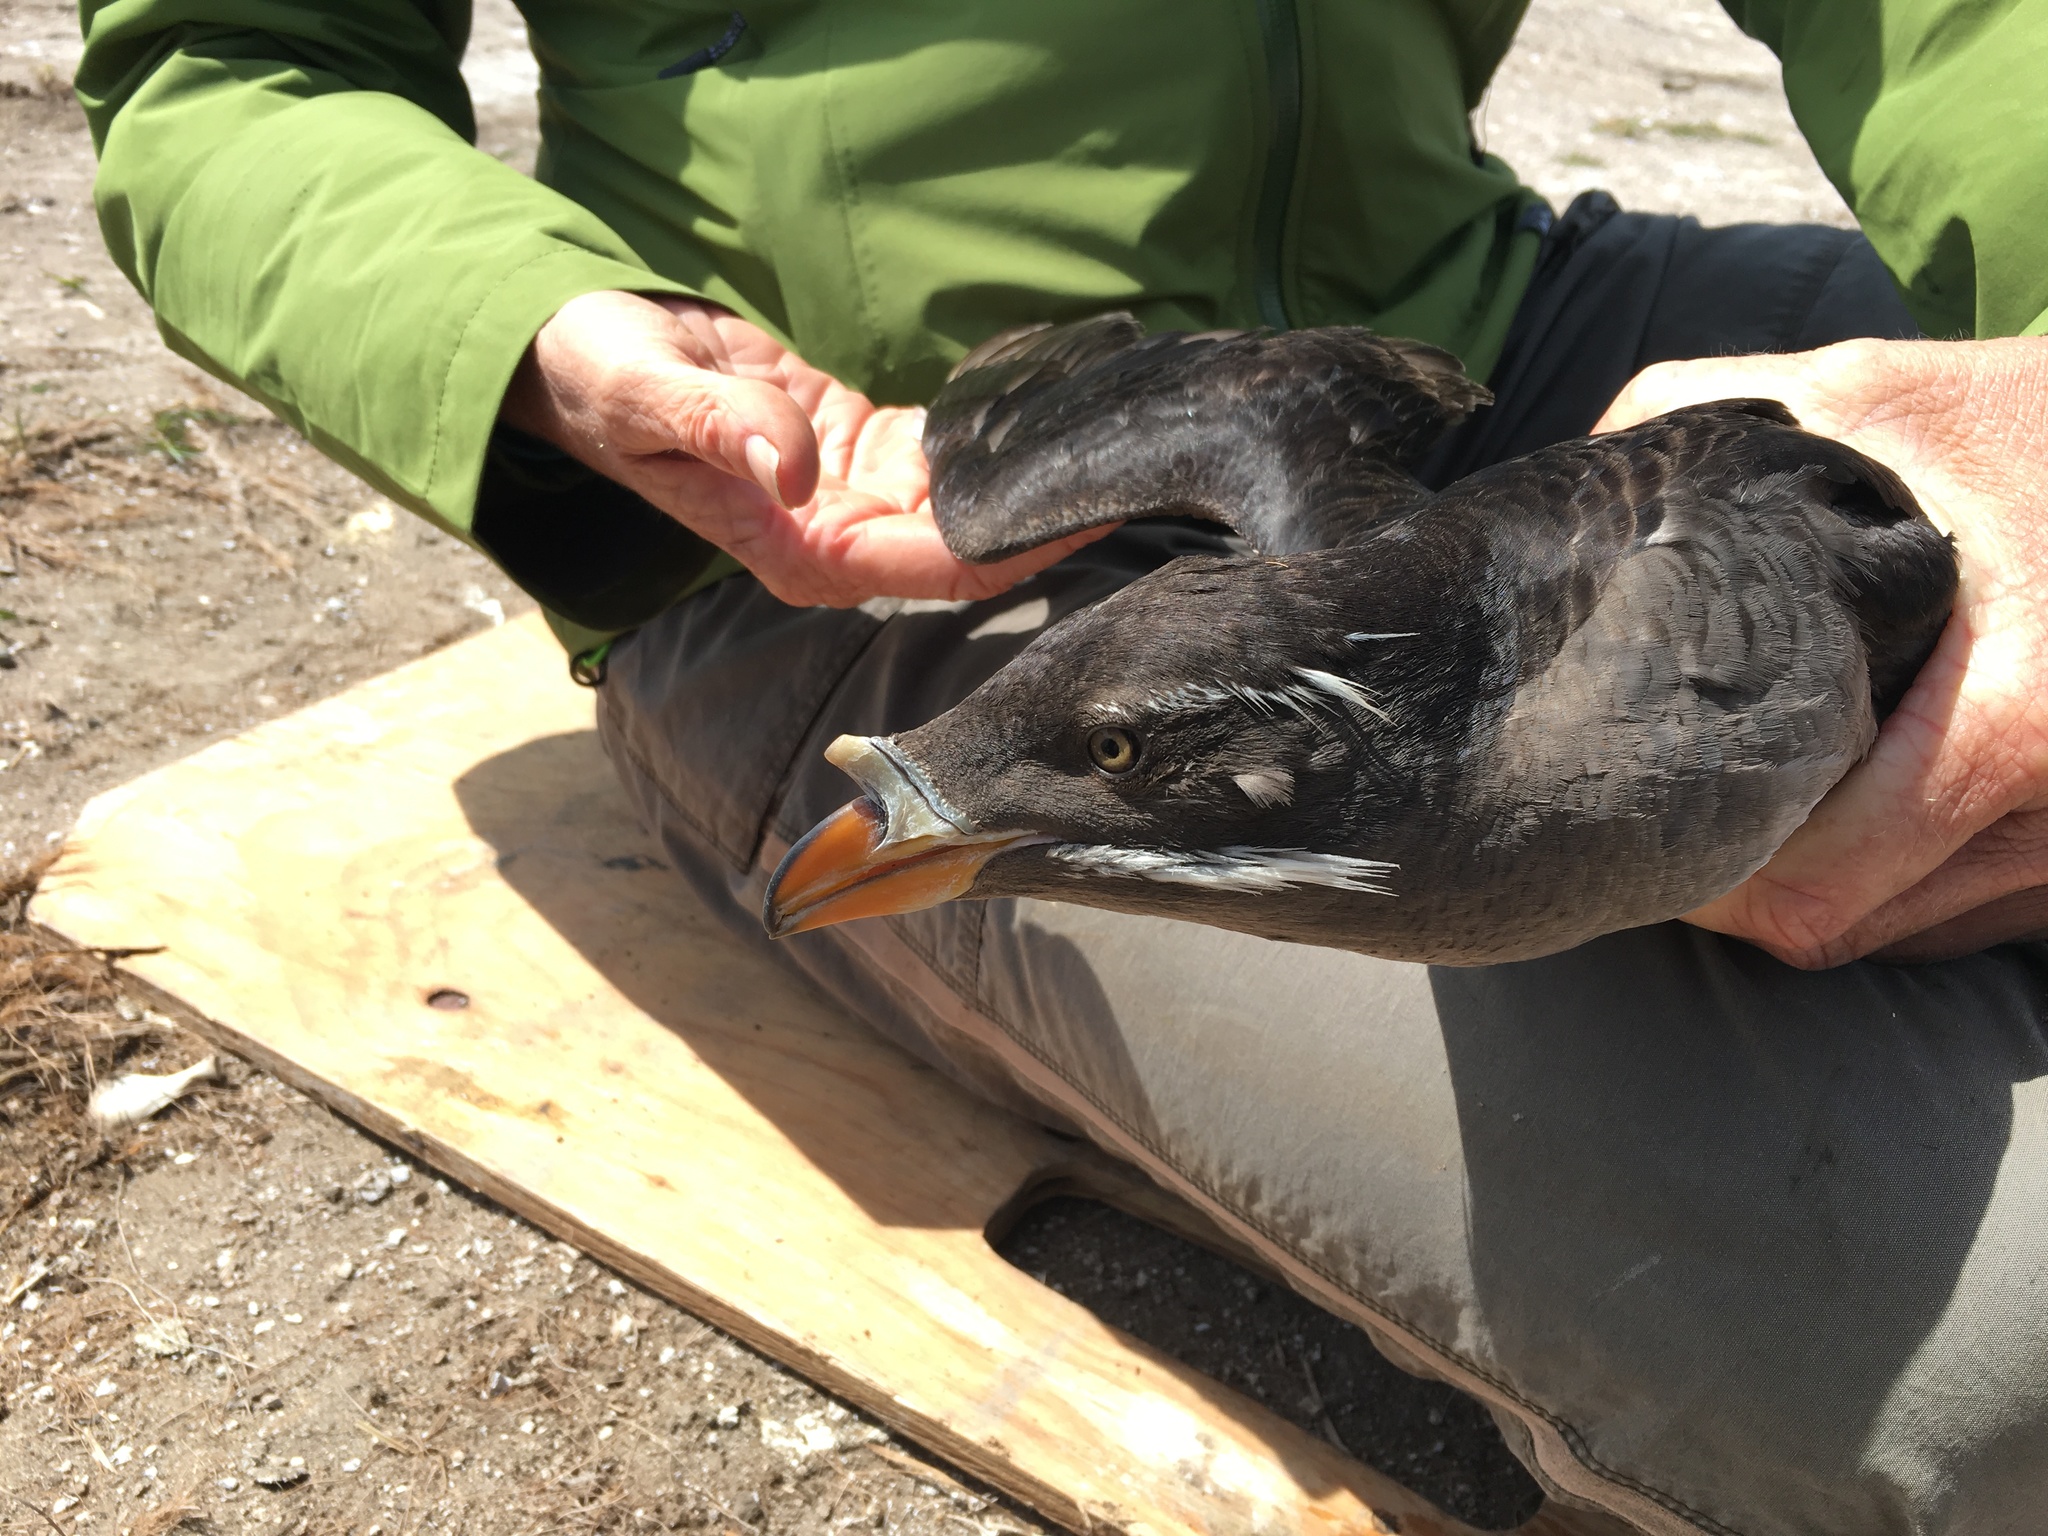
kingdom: Animalia
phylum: Chordata
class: Aves
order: Charadriiformes
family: Alcidae
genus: Cerorhinca
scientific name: Cerorhinca monocerata
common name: Rhinoceros auklet
